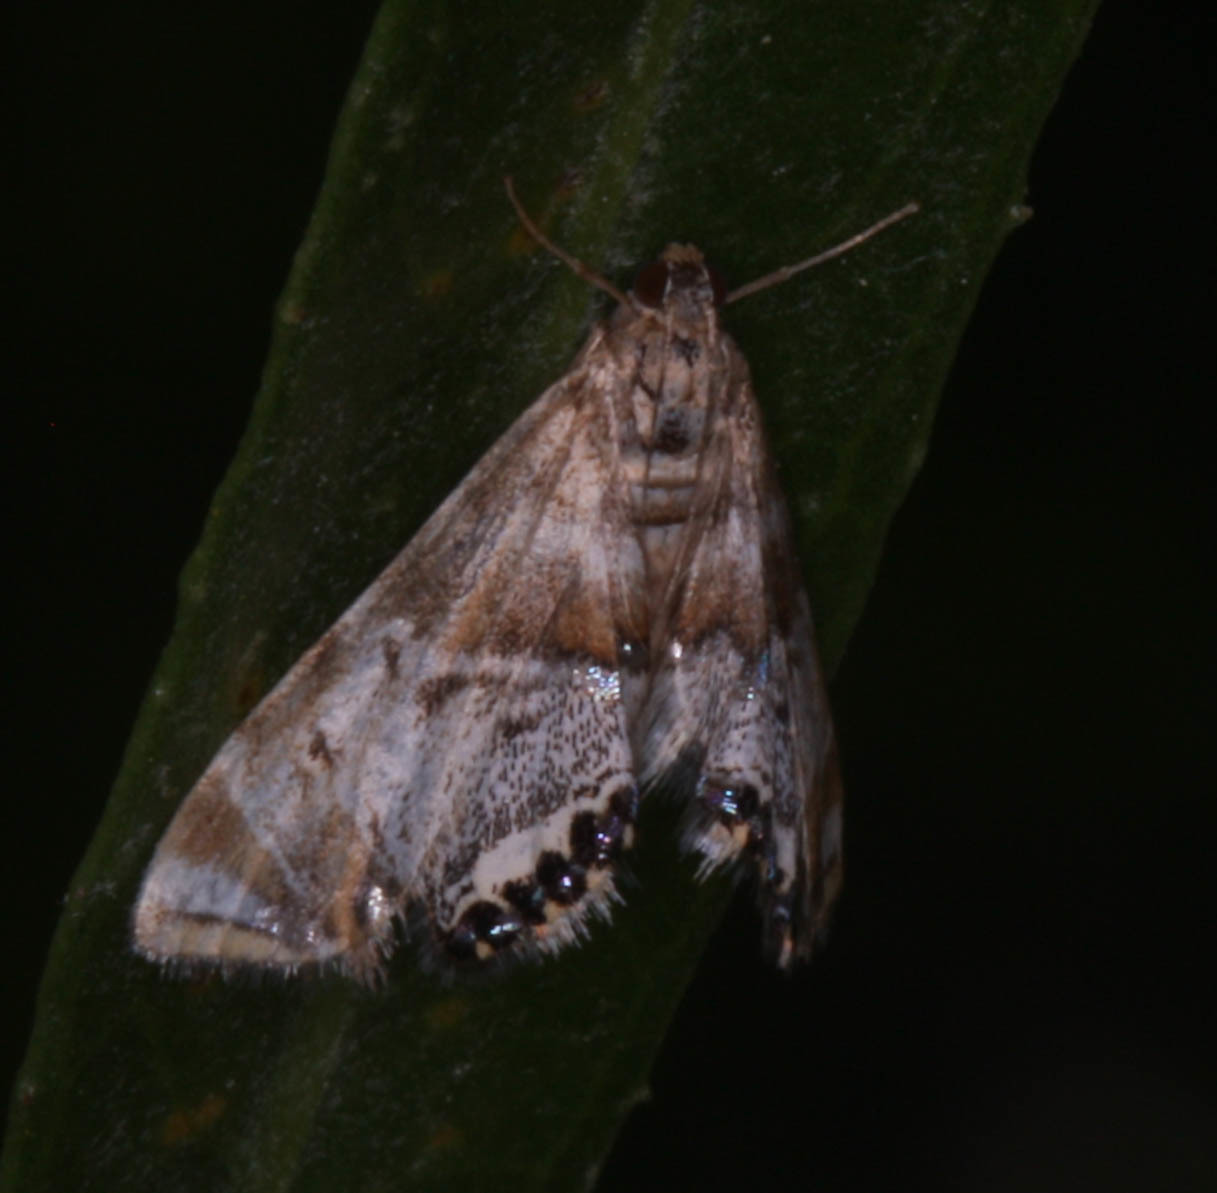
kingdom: Animalia
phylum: Arthropoda
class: Insecta
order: Lepidoptera
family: Crambidae
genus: Petrophila
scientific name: Petrophila confusalis
